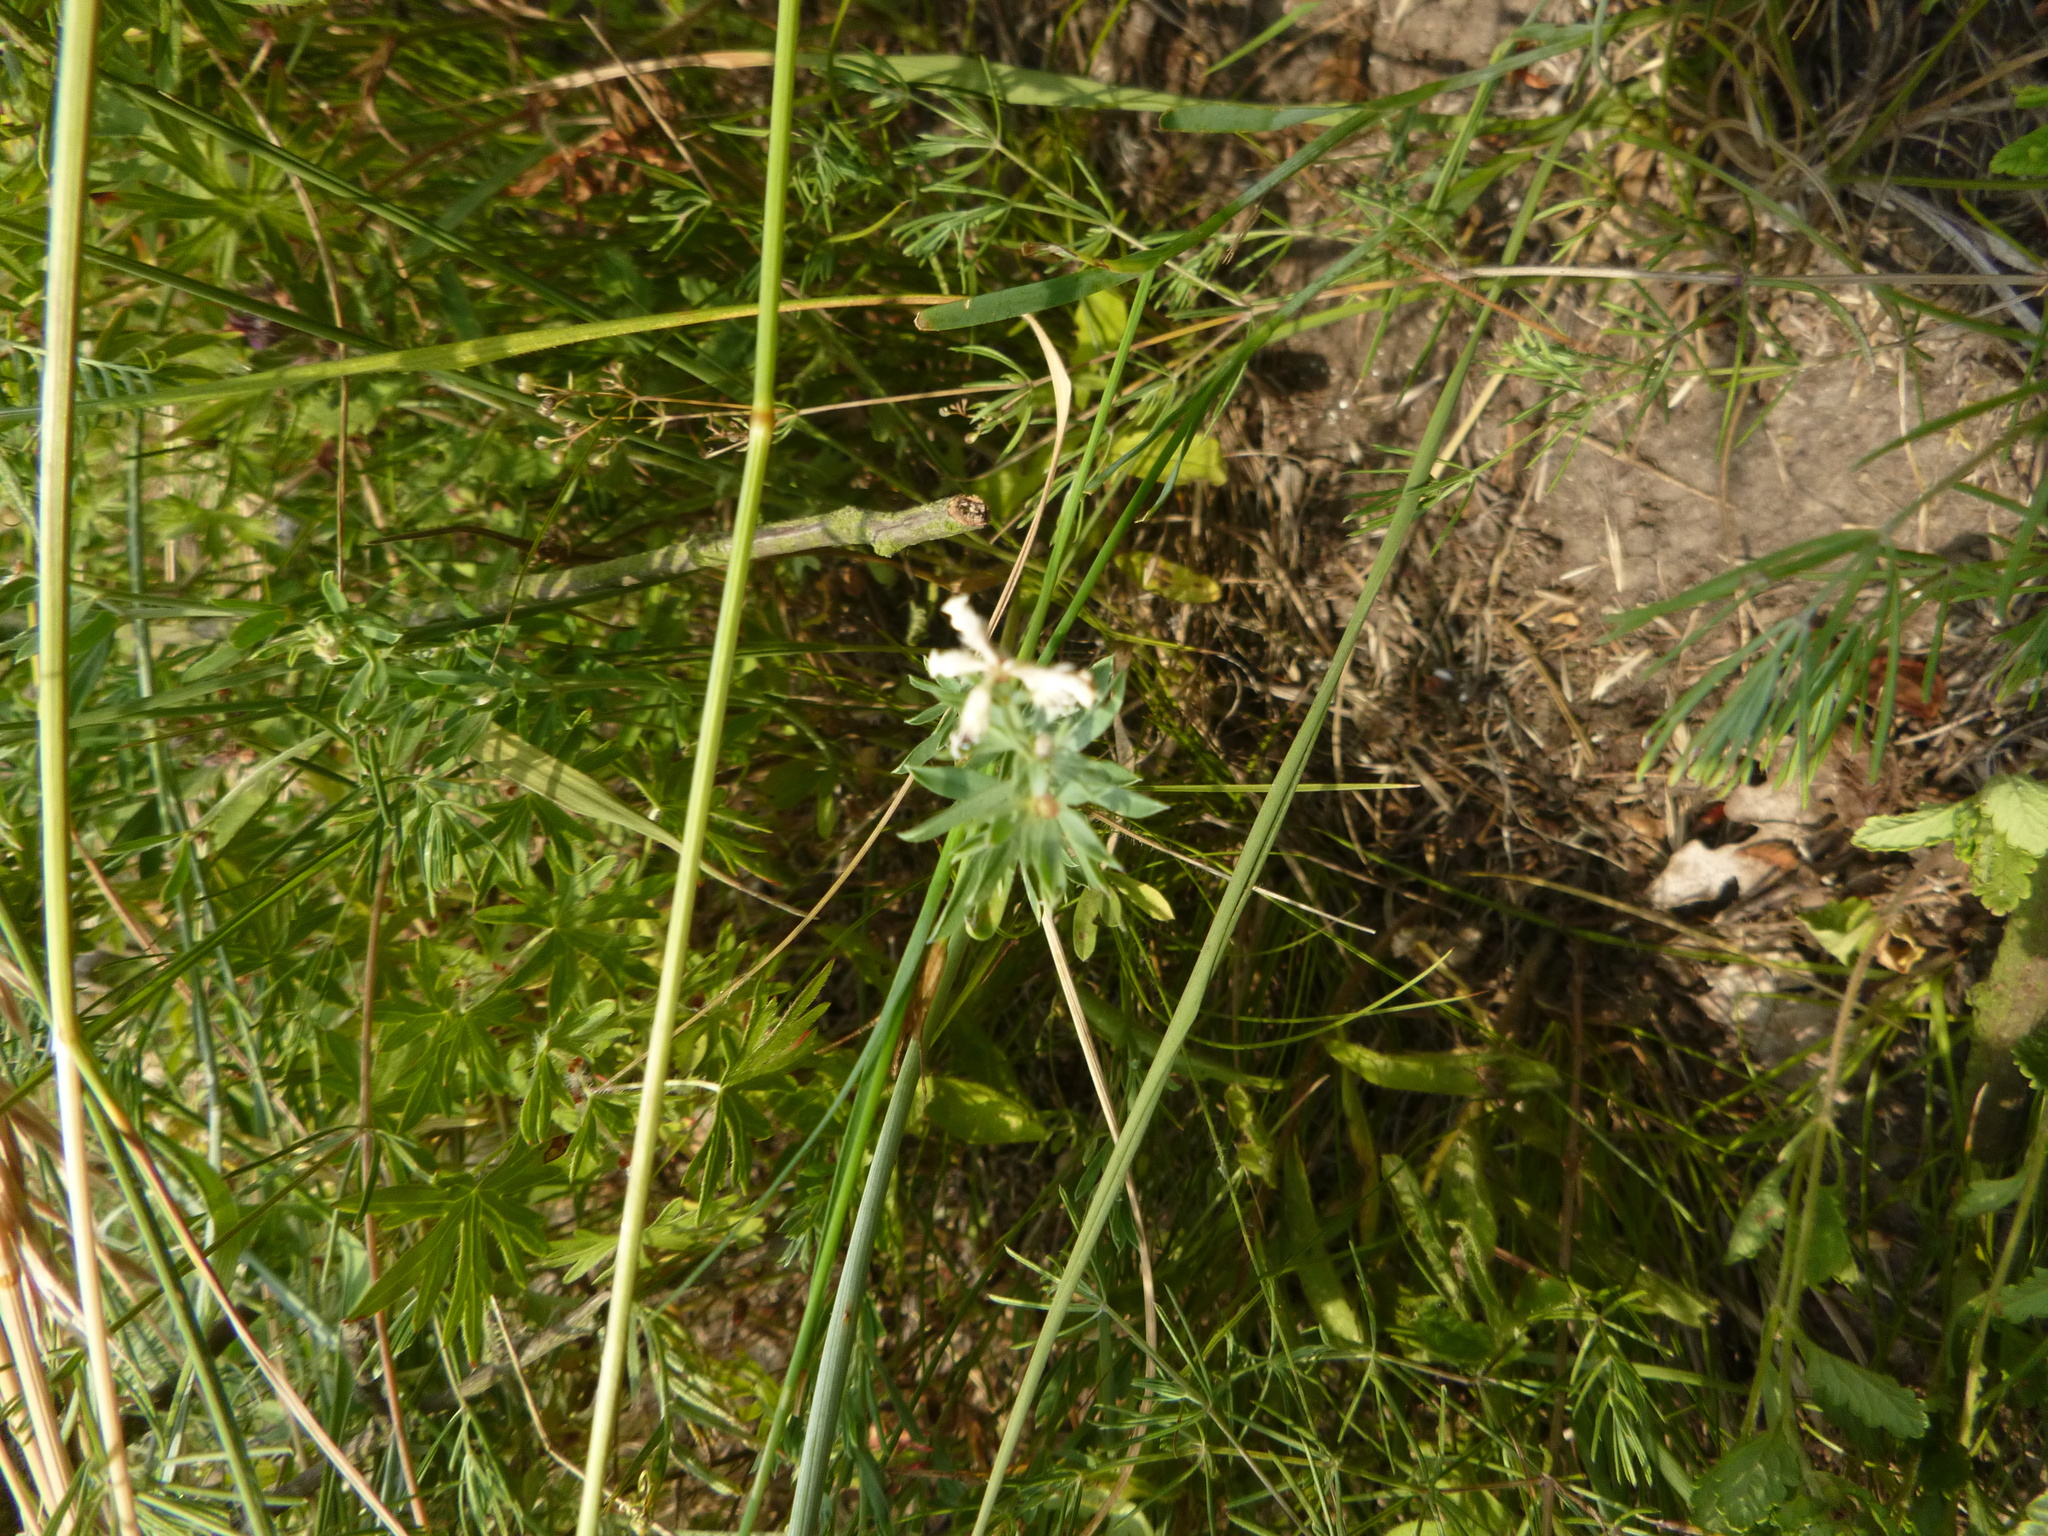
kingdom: Plantae
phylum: Tracheophyta
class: Magnoliopsida
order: Fabales
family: Fabaceae
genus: Lotus
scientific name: Lotus germanicus
